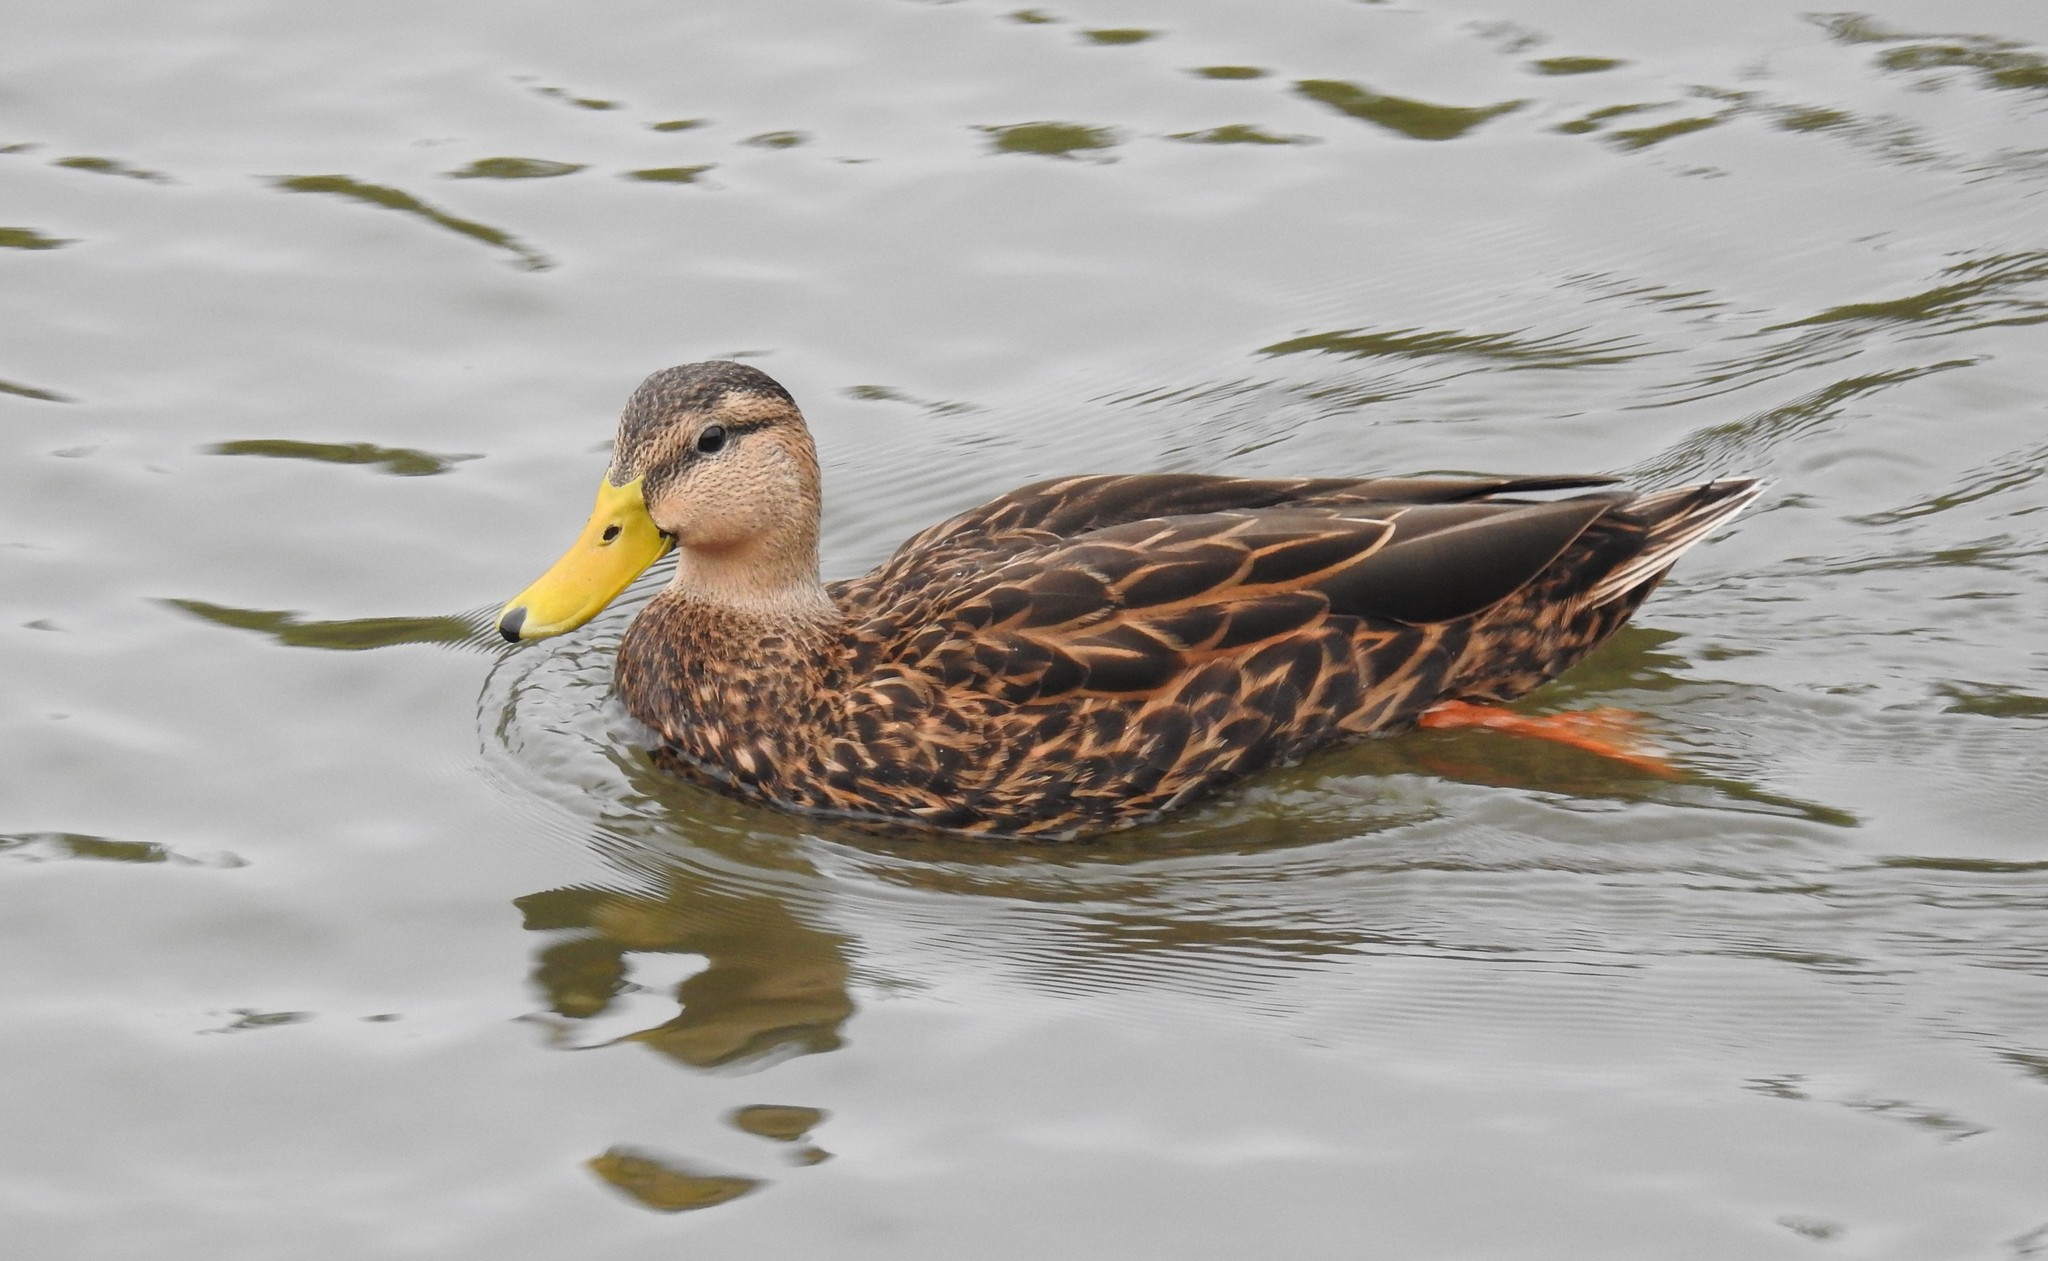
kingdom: Animalia
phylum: Chordata
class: Aves
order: Anseriformes
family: Anatidae
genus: Anas
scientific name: Anas fulvigula
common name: Mottled duck
